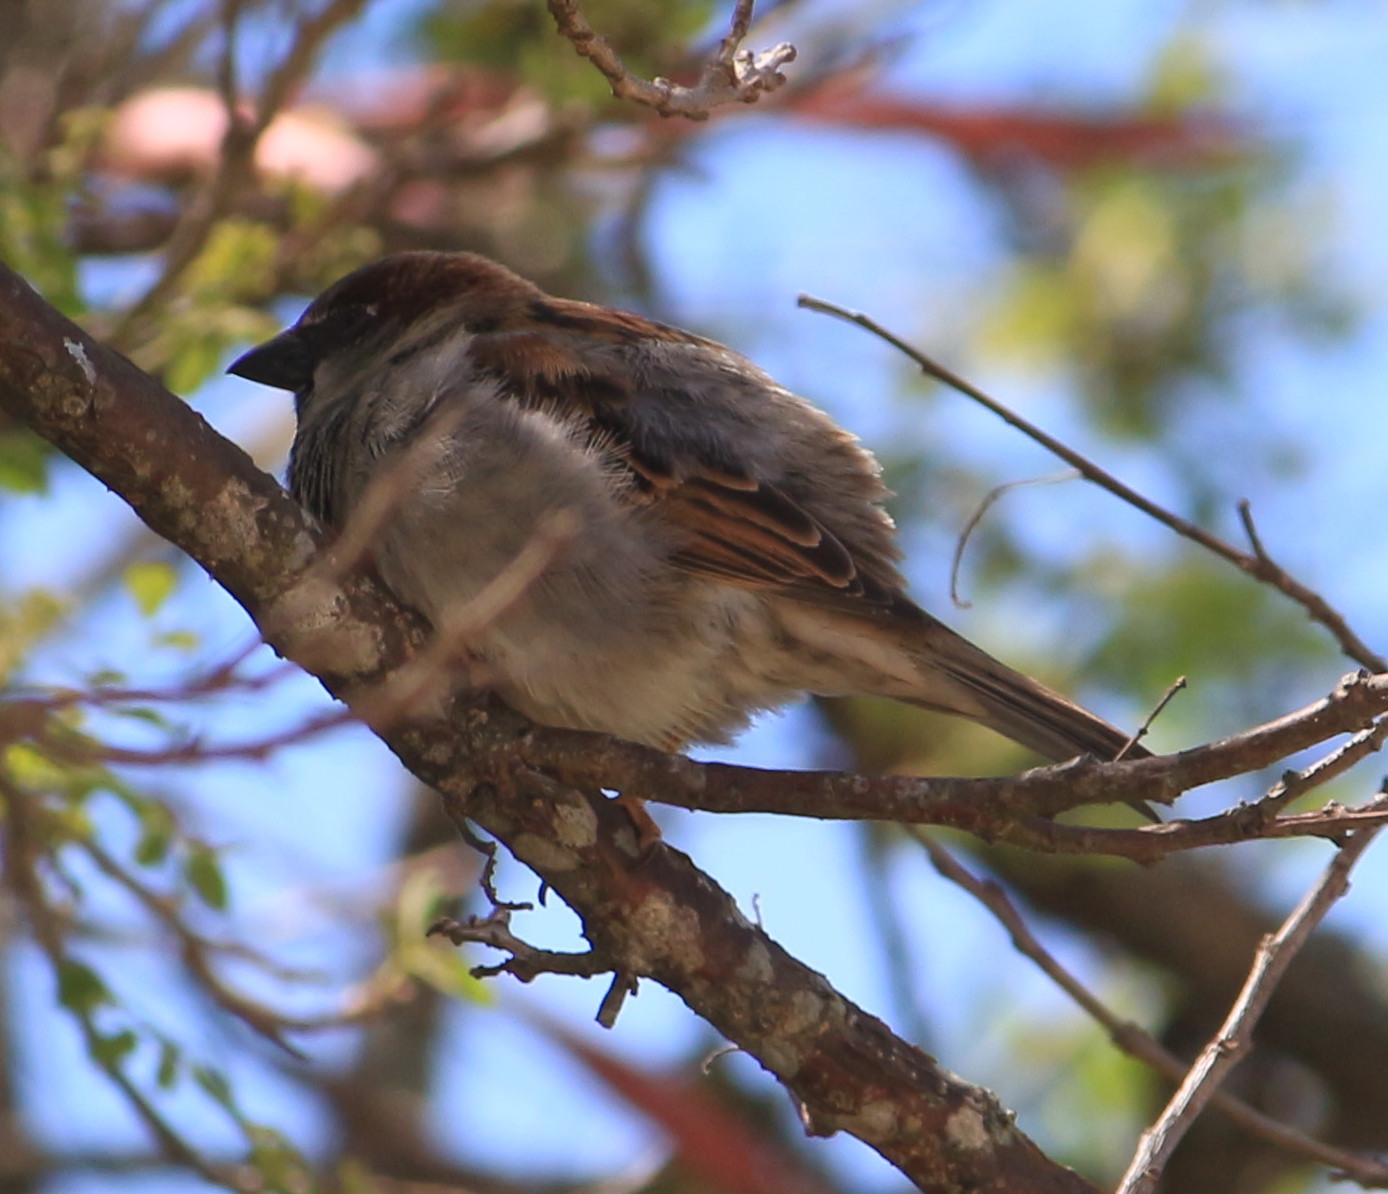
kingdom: Animalia
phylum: Chordata
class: Aves
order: Passeriformes
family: Passeridae
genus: Passer
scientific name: Passer domesticus
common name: House sparrow
